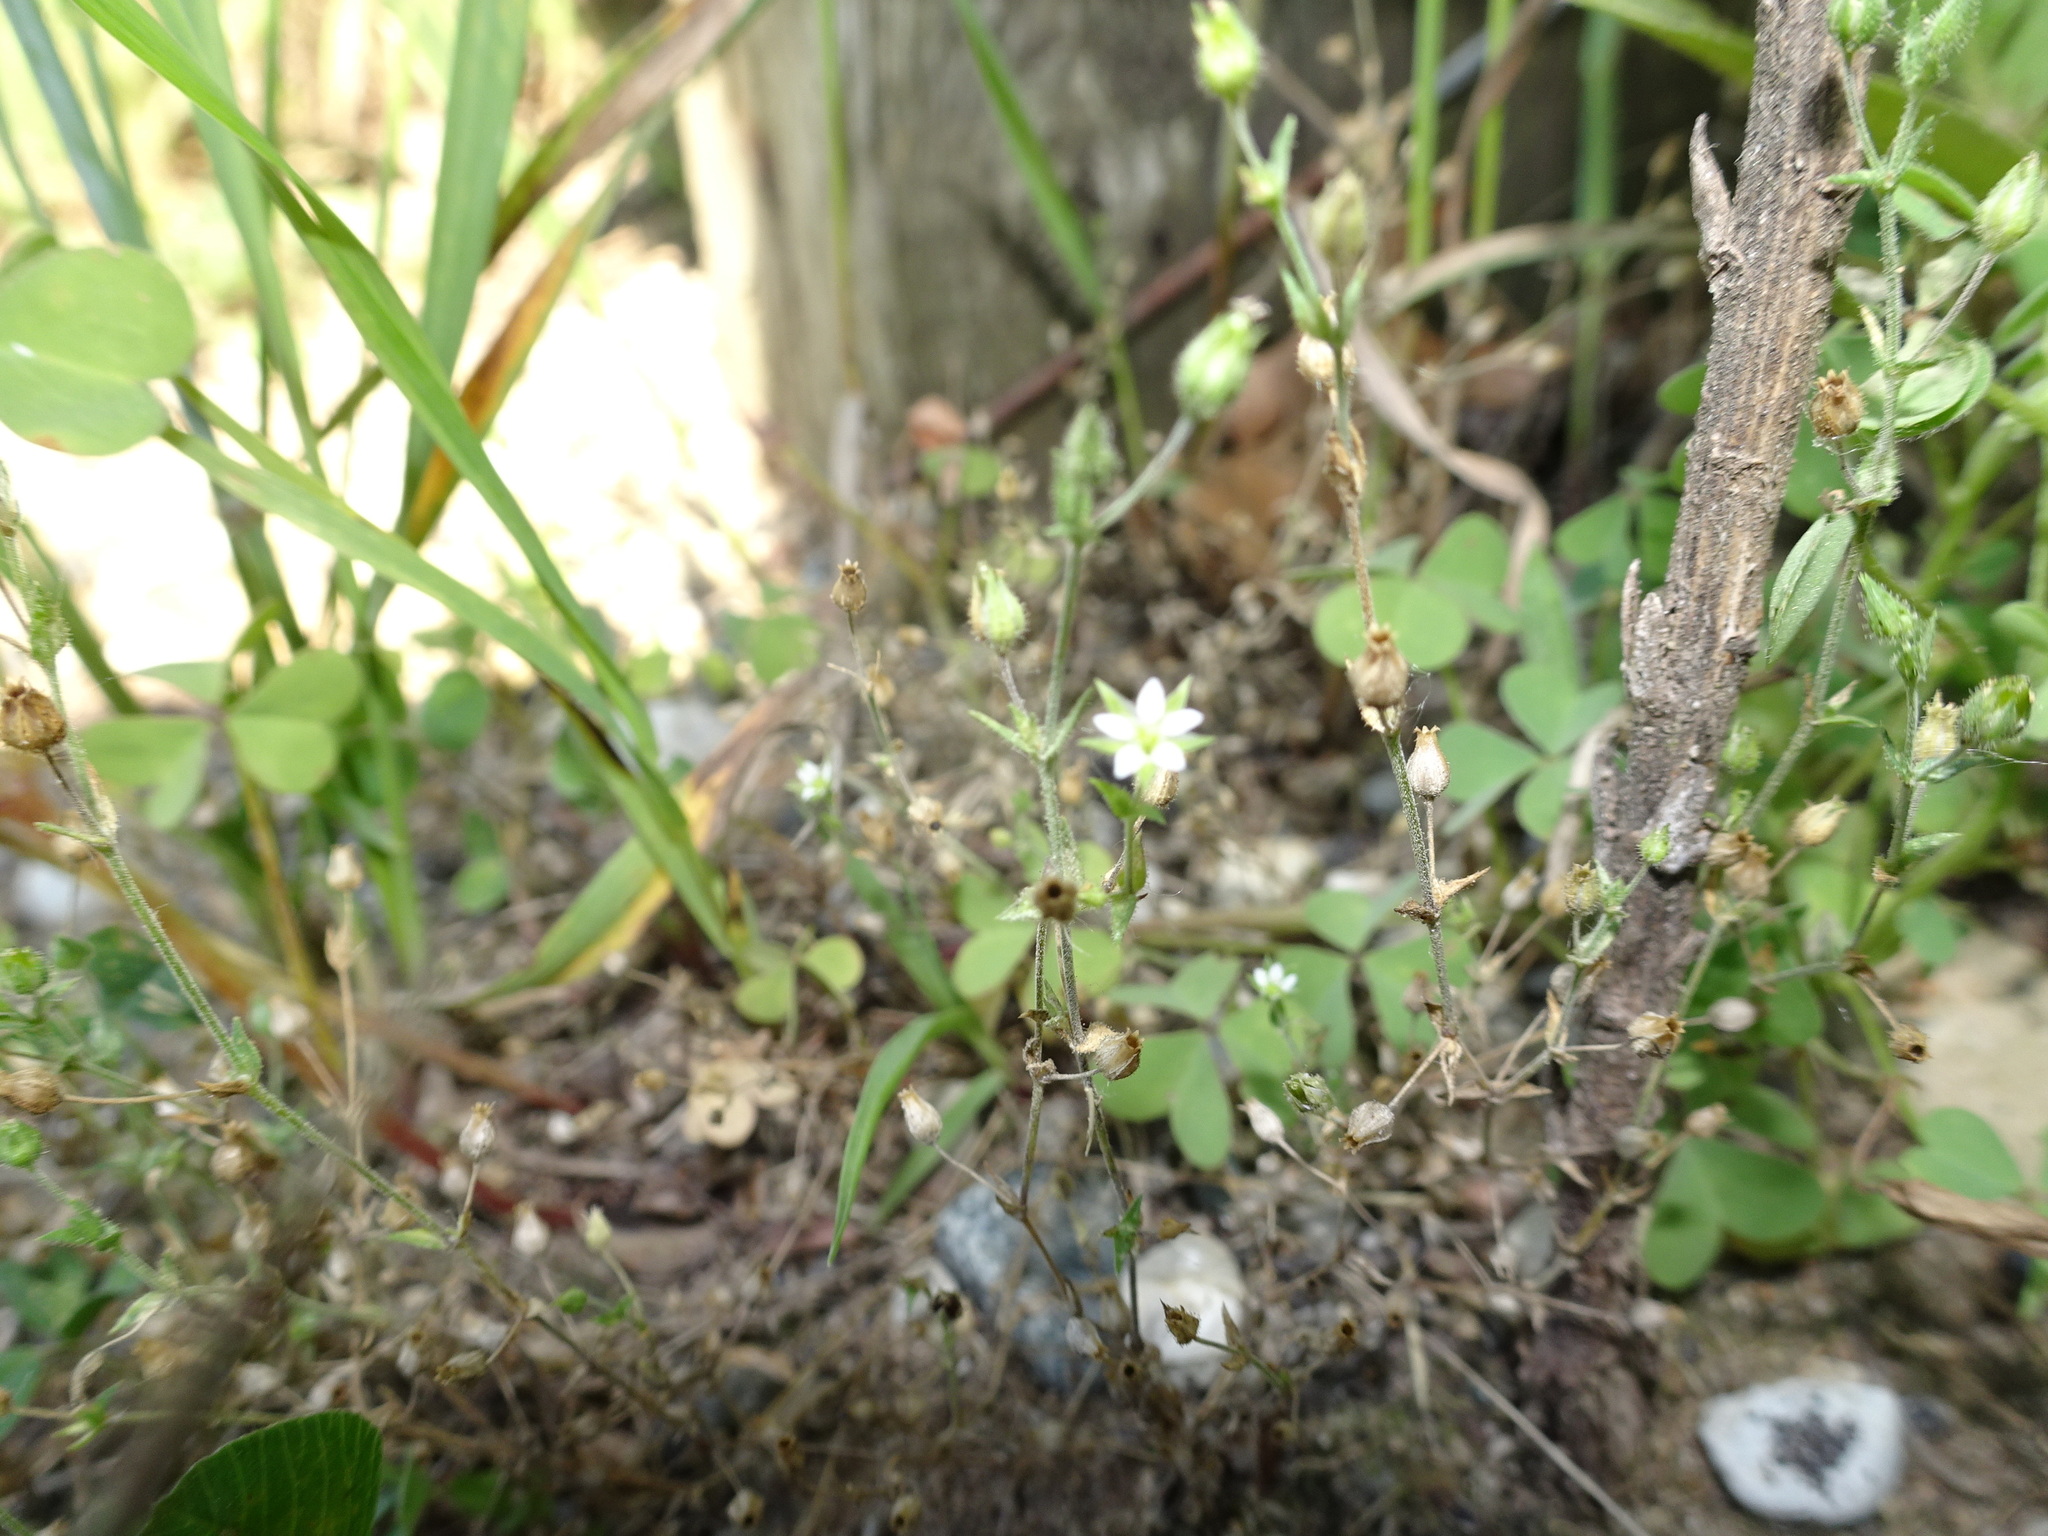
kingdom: Plantae
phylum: Tracheophyta
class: Magnoliopsida
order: Caryophyllales
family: Caryophyllaceae
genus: Arenaria
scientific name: Arenaria serpyllifolia
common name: Thyme-leaved sandwort
